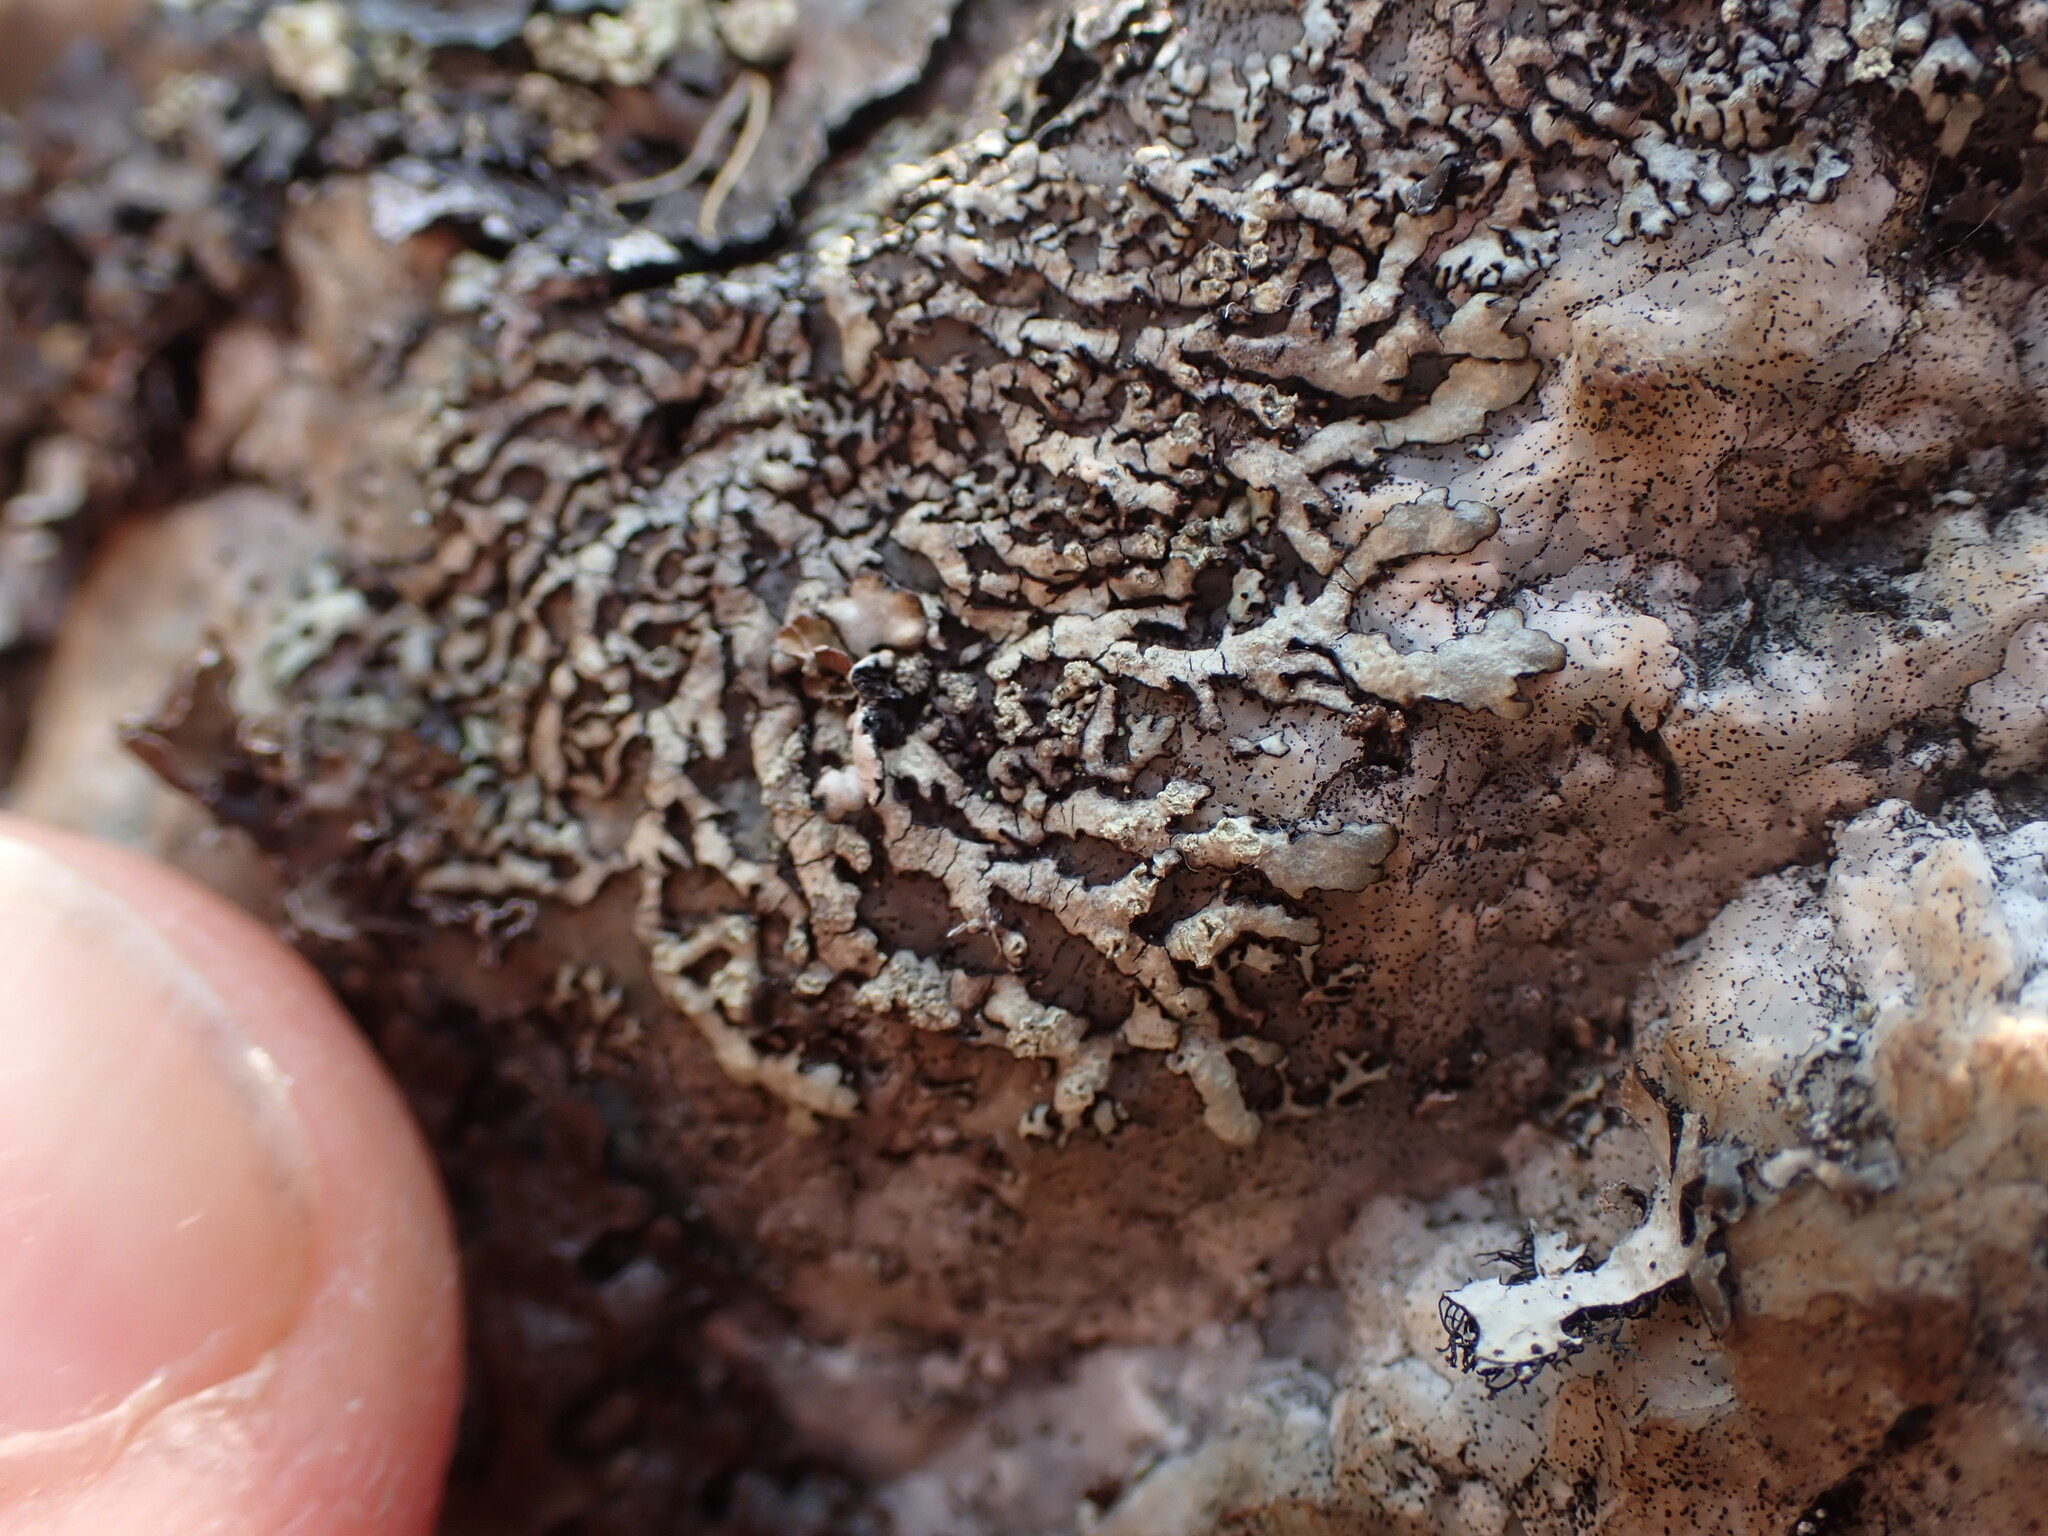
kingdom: Fungi
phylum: Ascomycota
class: Lecanoromycetes
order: Lecanorales
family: Parmeliaceae
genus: Xanthoparmelia
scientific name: Xanthoparmelia mougeotii
